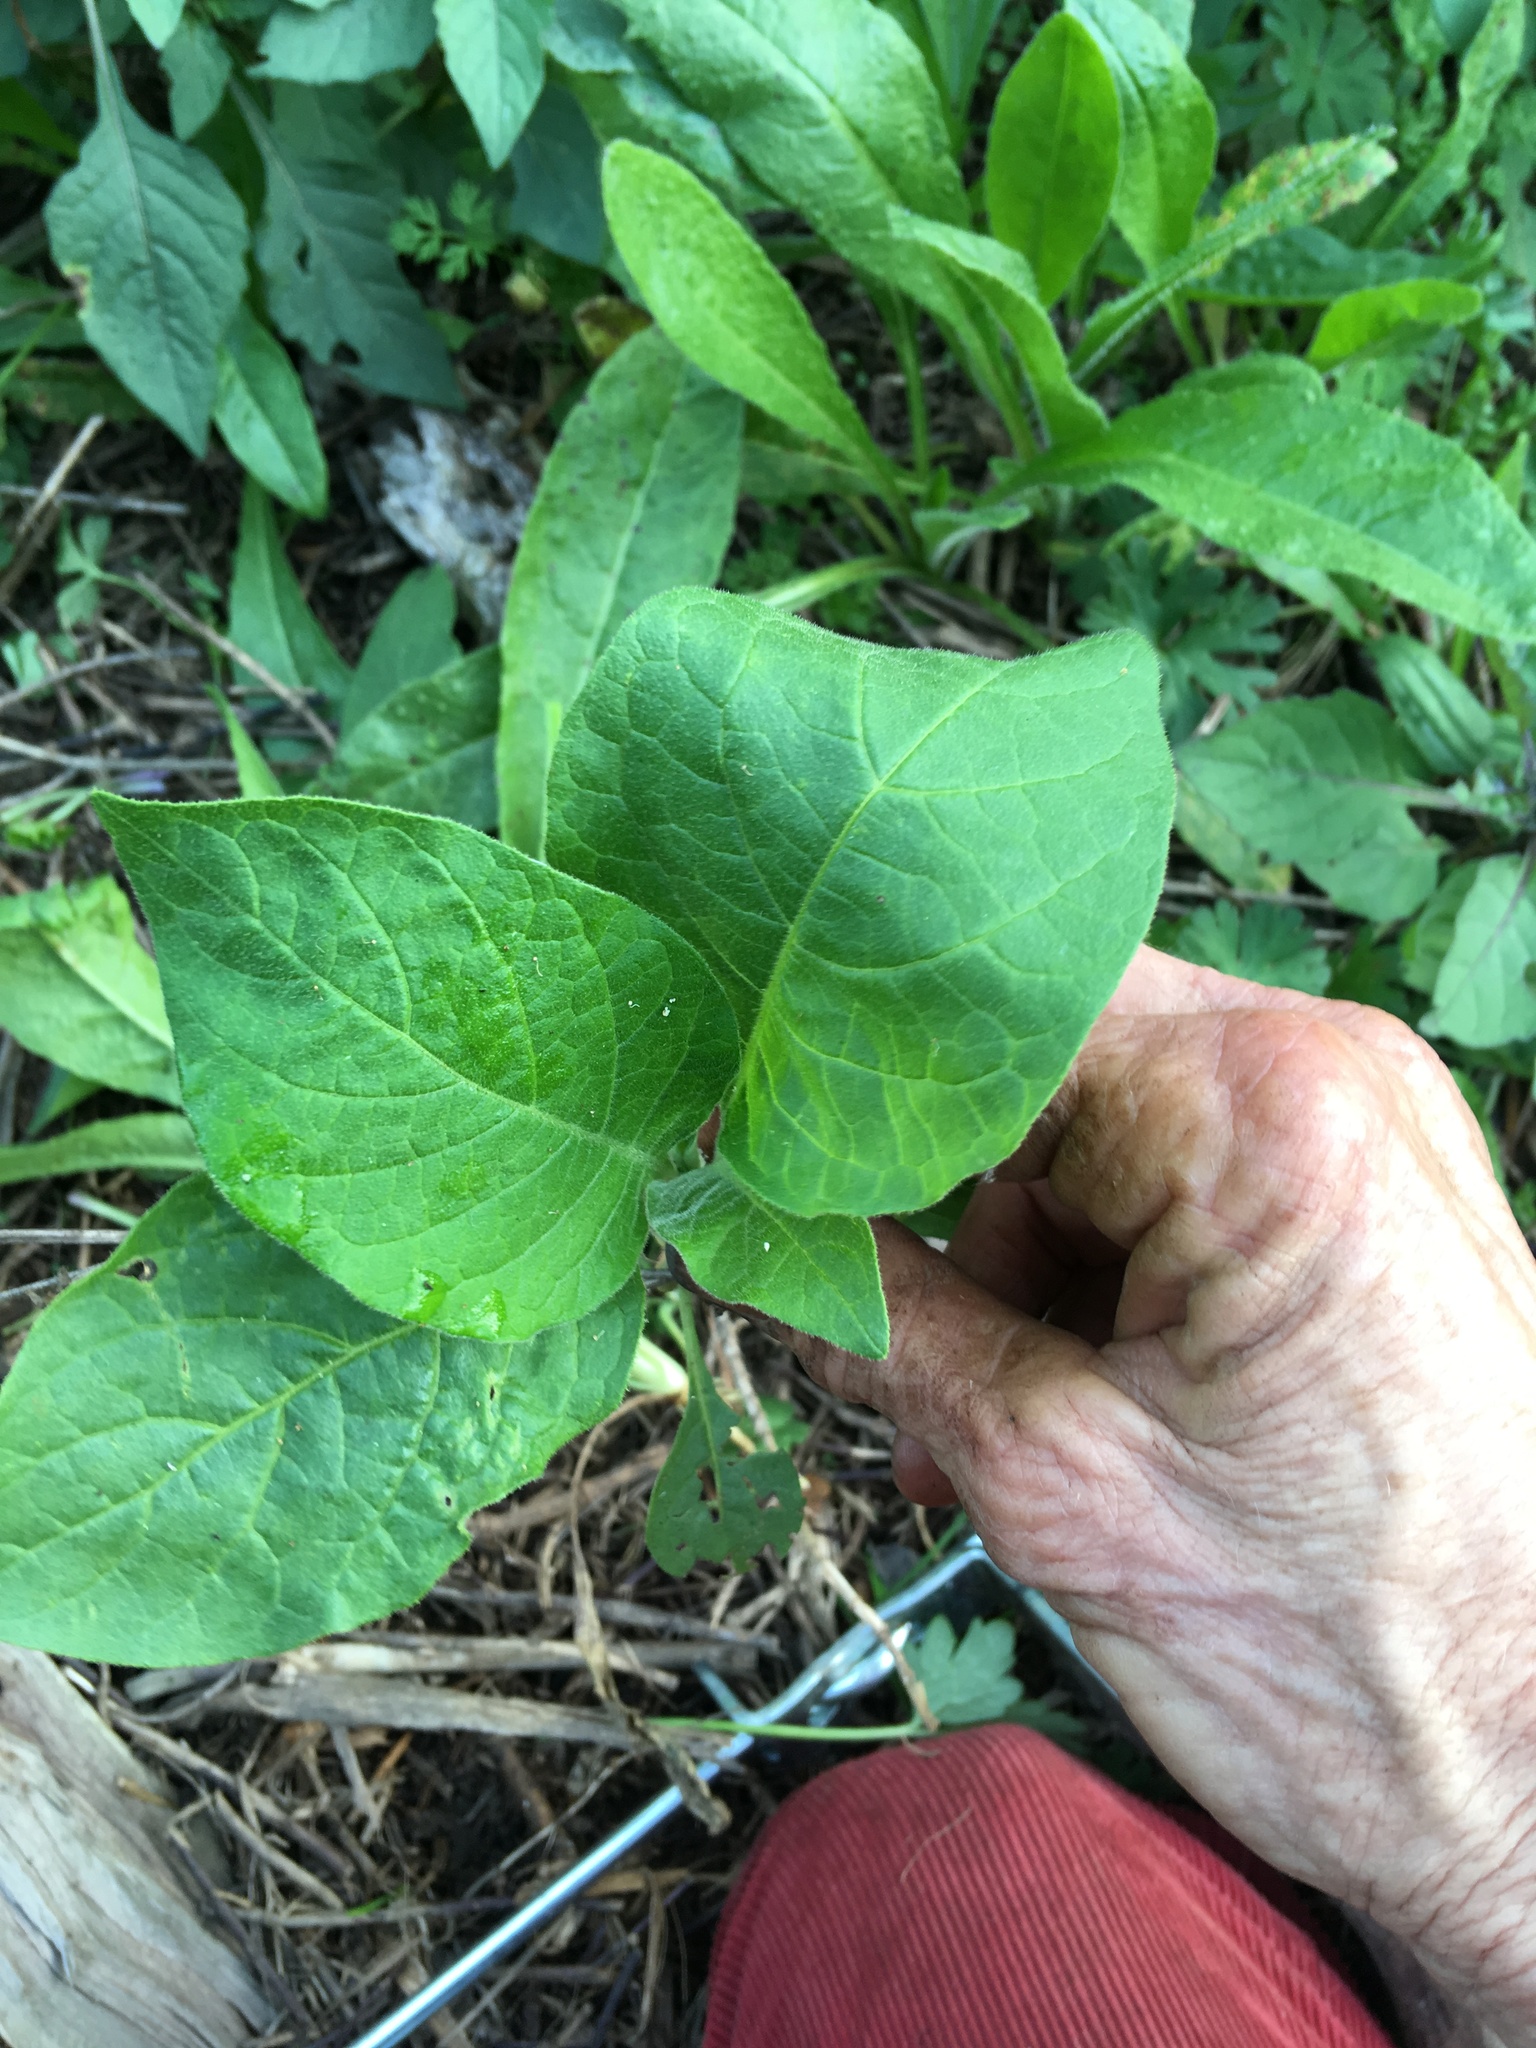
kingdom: Plantae
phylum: Tracheophyta
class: Magnoliopsida
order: Solanales
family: Solanaceae
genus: Solanum
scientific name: Solanum mauritianum
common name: Earleaf nightshade
